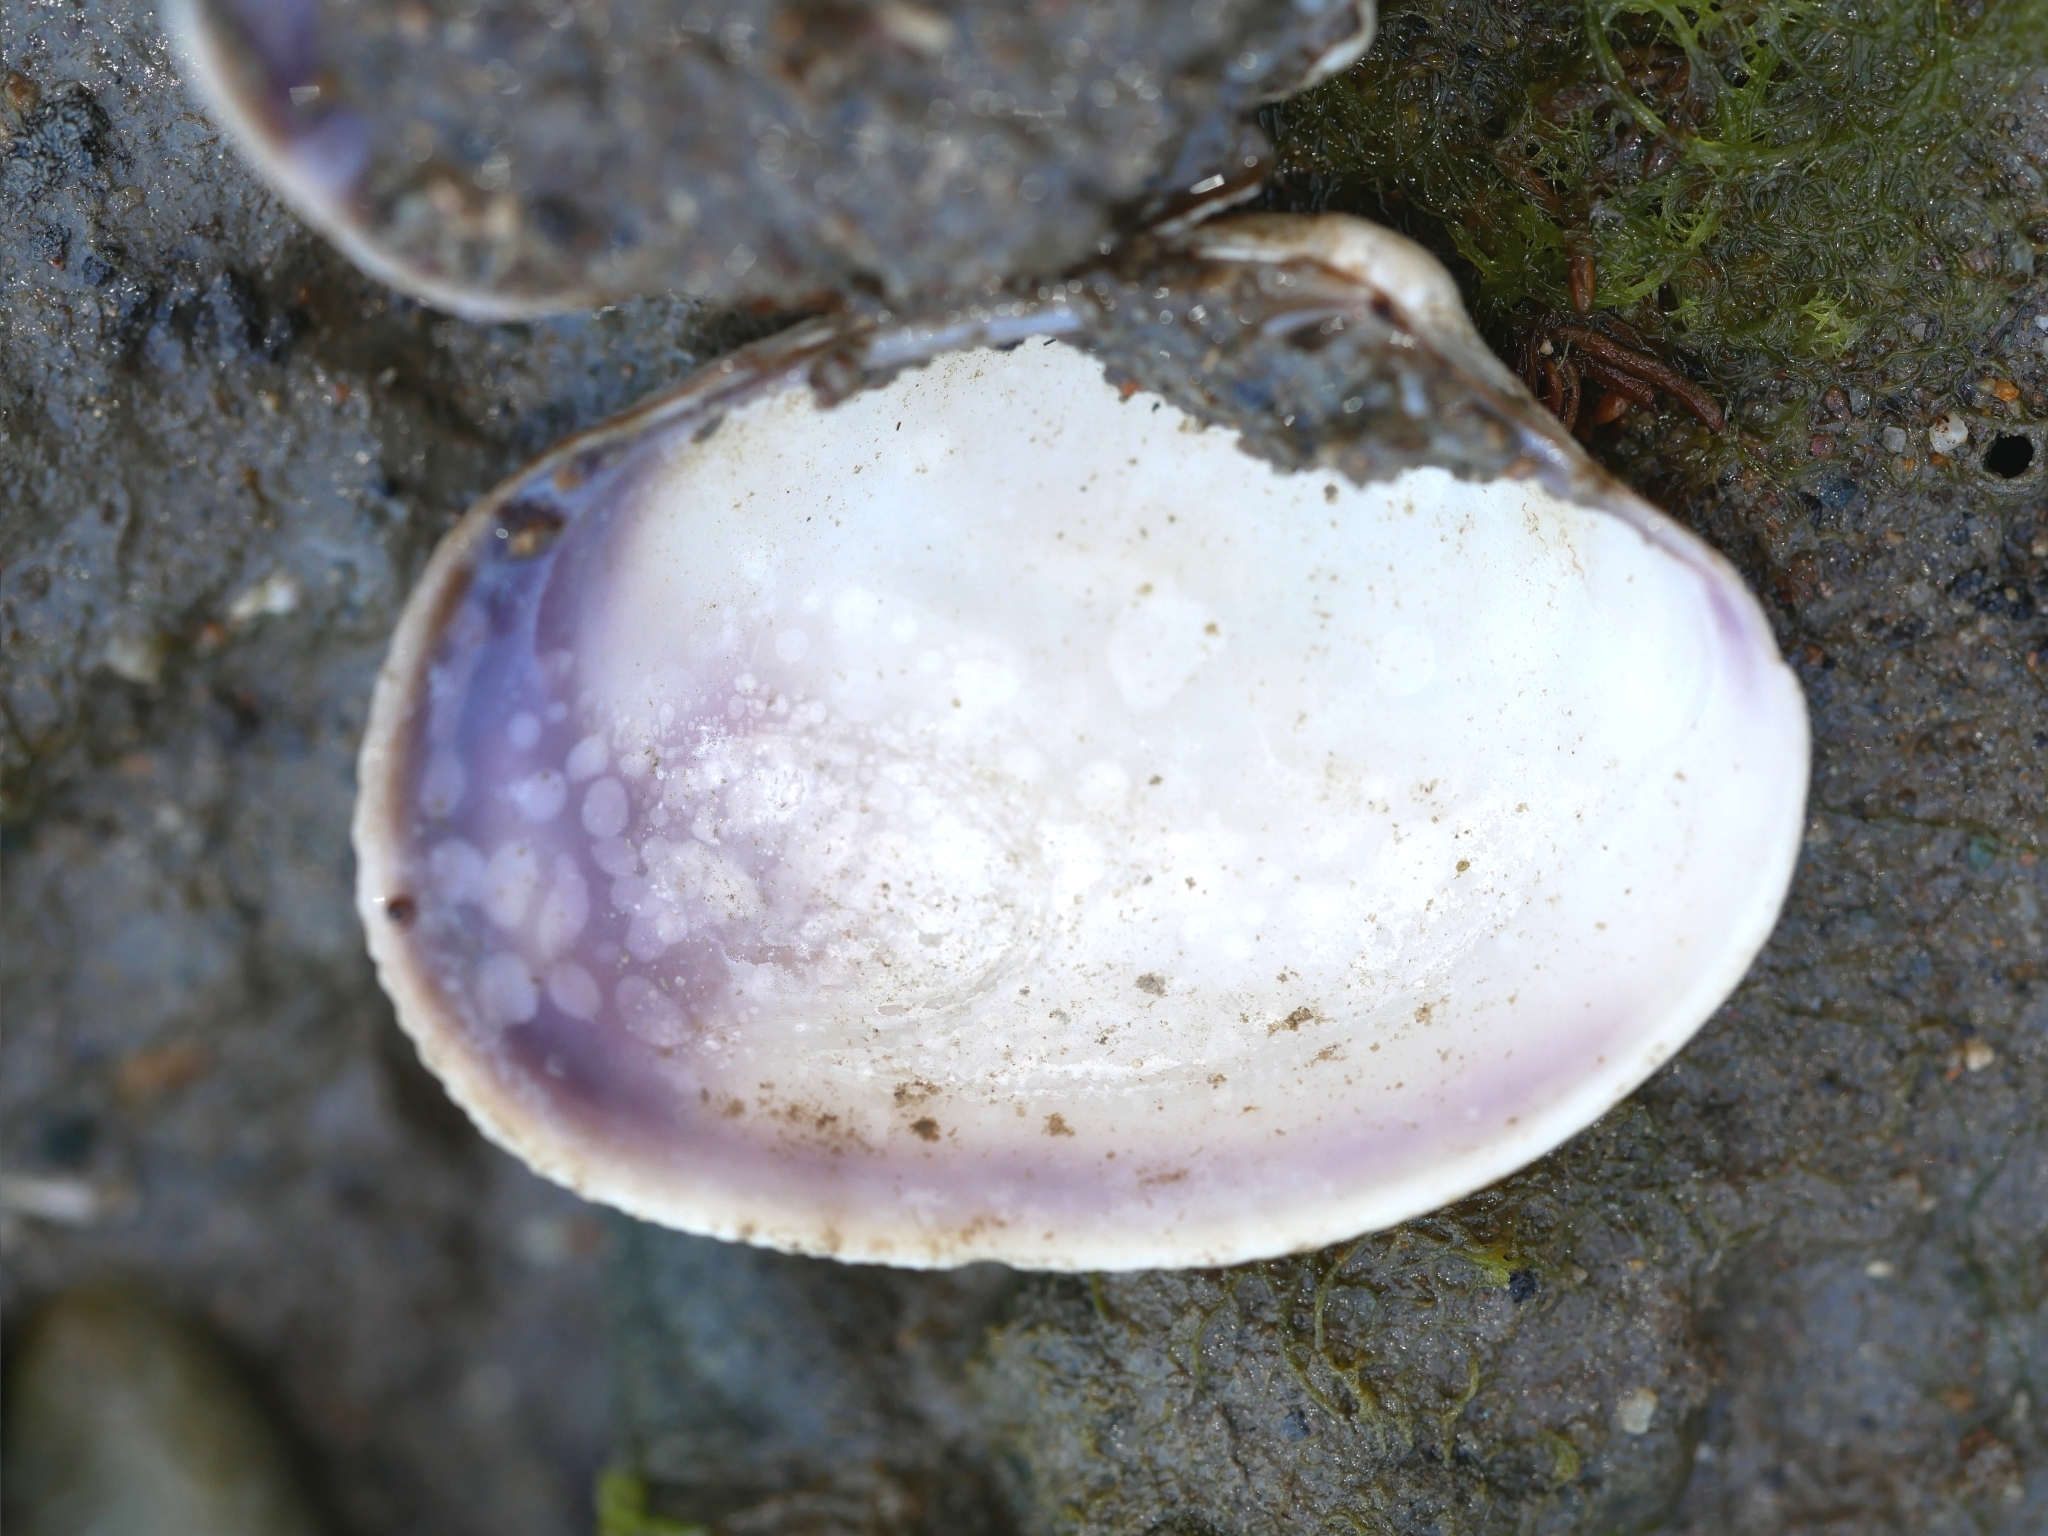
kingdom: Animalia
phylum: Mollusca
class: Bivalvia
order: Venerida
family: Veneridae
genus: Ruditapes
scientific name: Ruditapes philippinarum
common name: Manila clam
